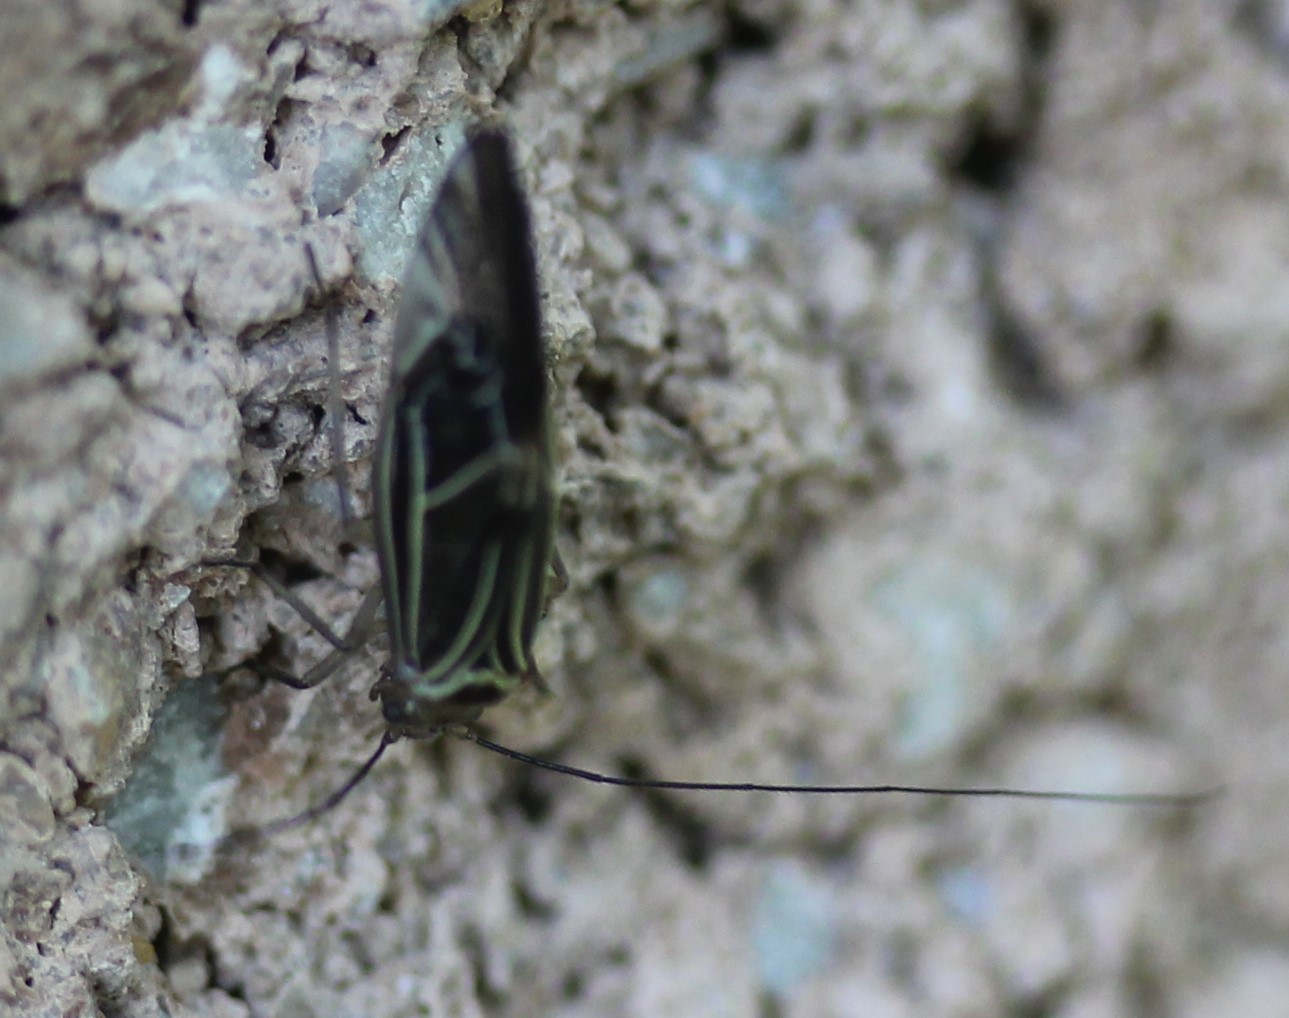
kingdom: Animalia
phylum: Arthropoda
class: Insecta
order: Psocodea
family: Psocidae
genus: Cerastipsocus
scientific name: Cerastipsocus venosus
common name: Tree cattle
